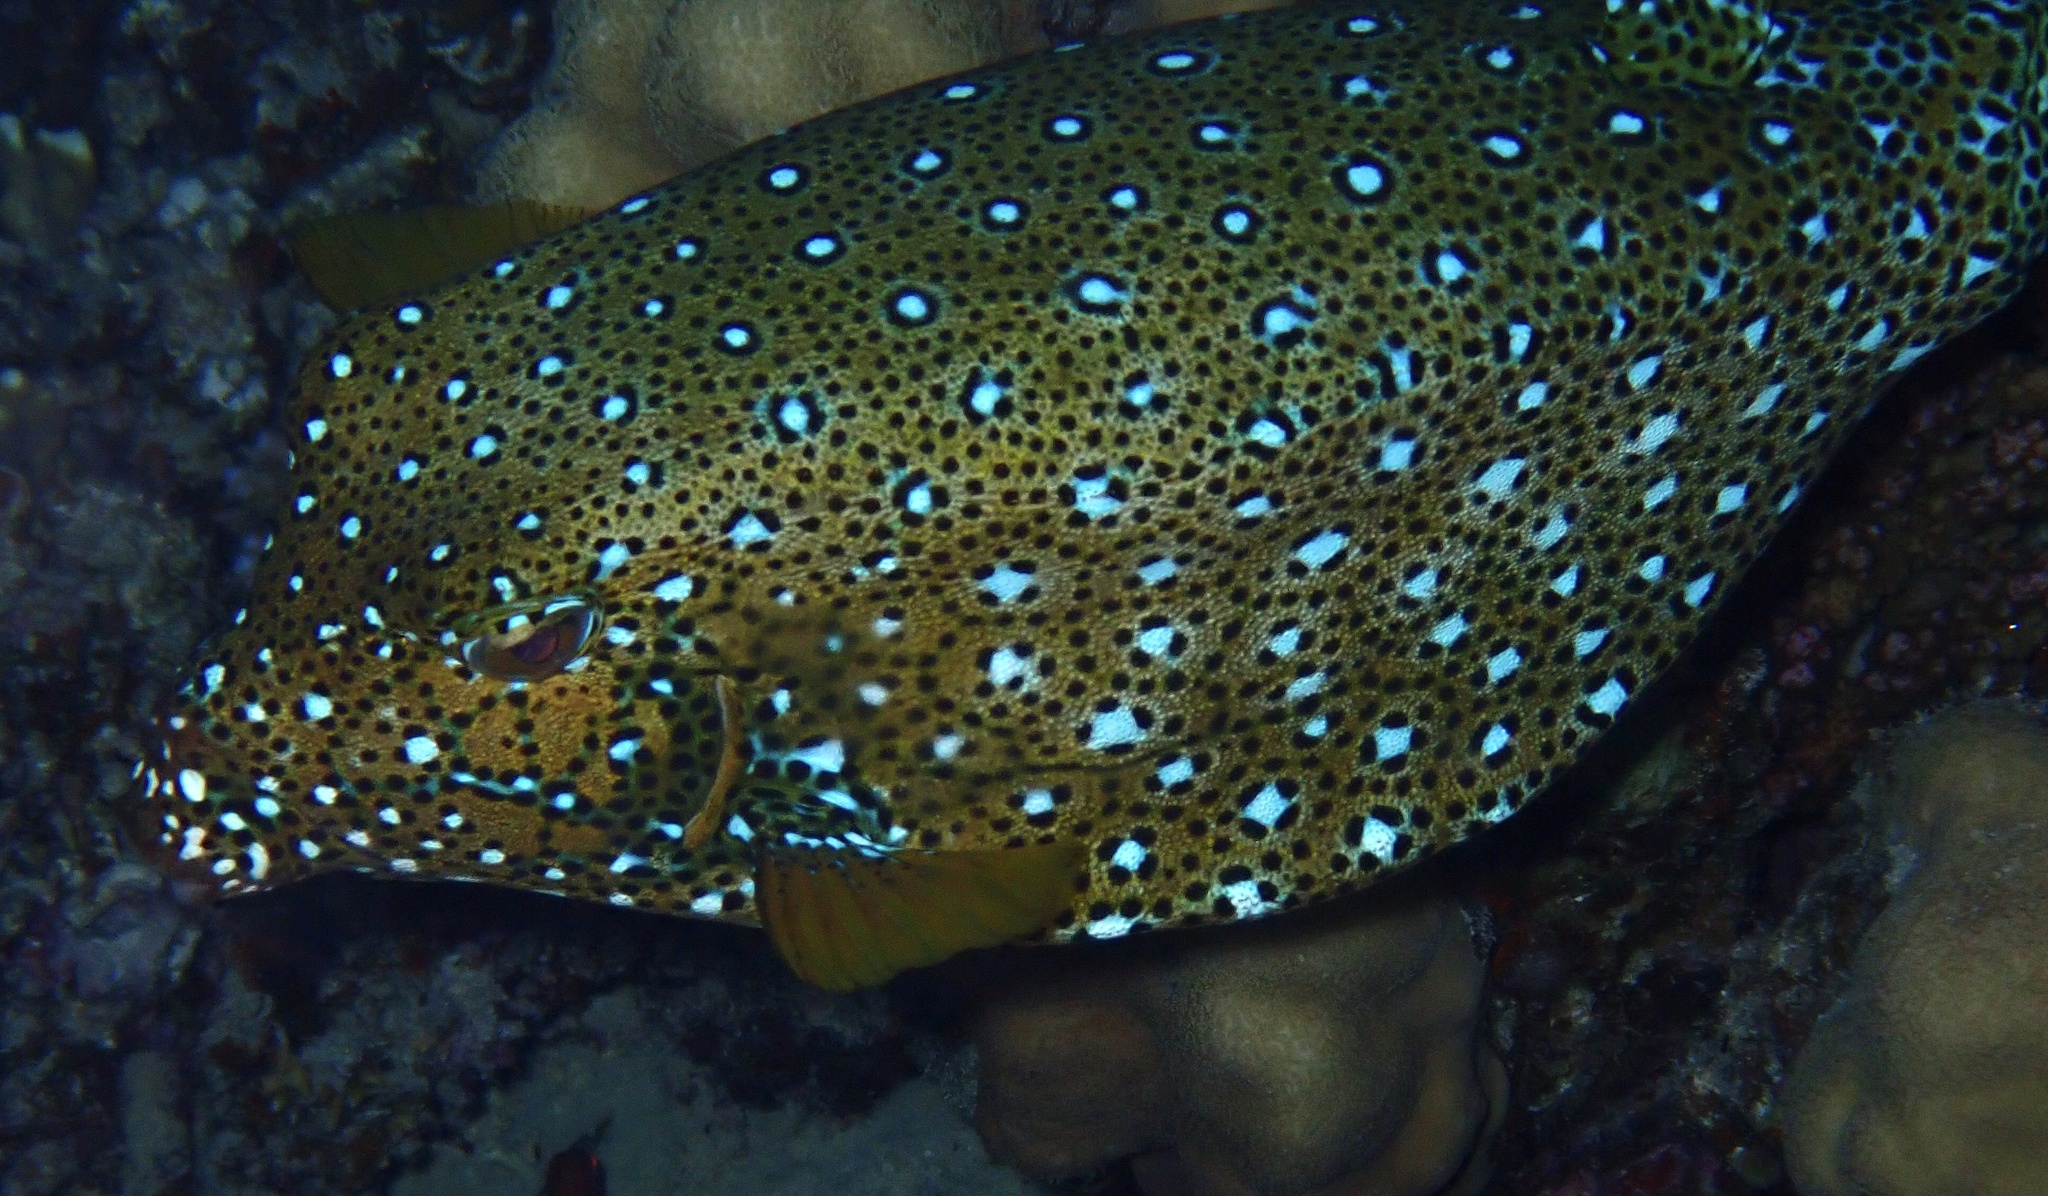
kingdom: Animalia
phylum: Chordata
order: Tetraodontiformes
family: Ostraciidae
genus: Ostracion
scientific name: Ostracion cubicus
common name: Cube trunkfish
